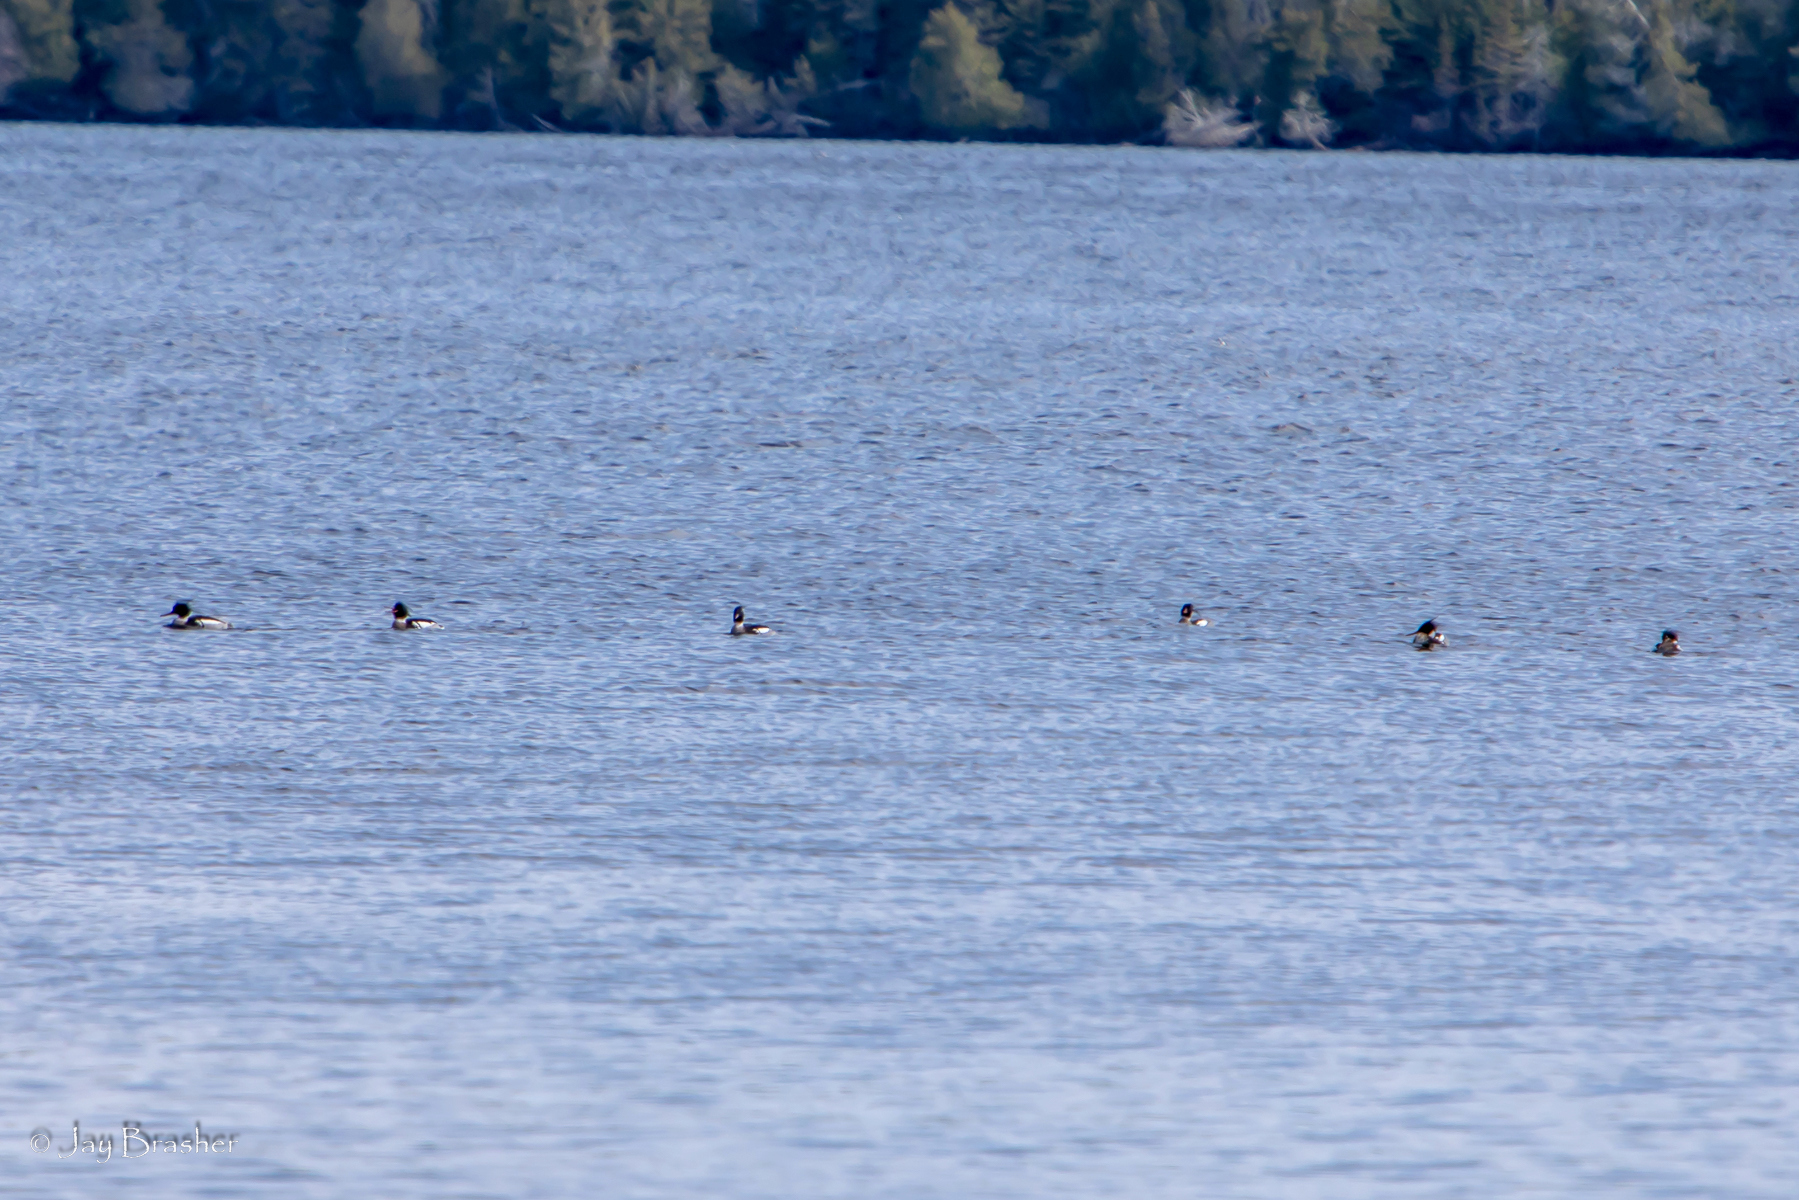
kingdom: Animalia
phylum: Chordata
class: Aves
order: Anseriformes
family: Anatidae
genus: Mergus
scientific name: Mergus serrator
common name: Red-breasted merganser
